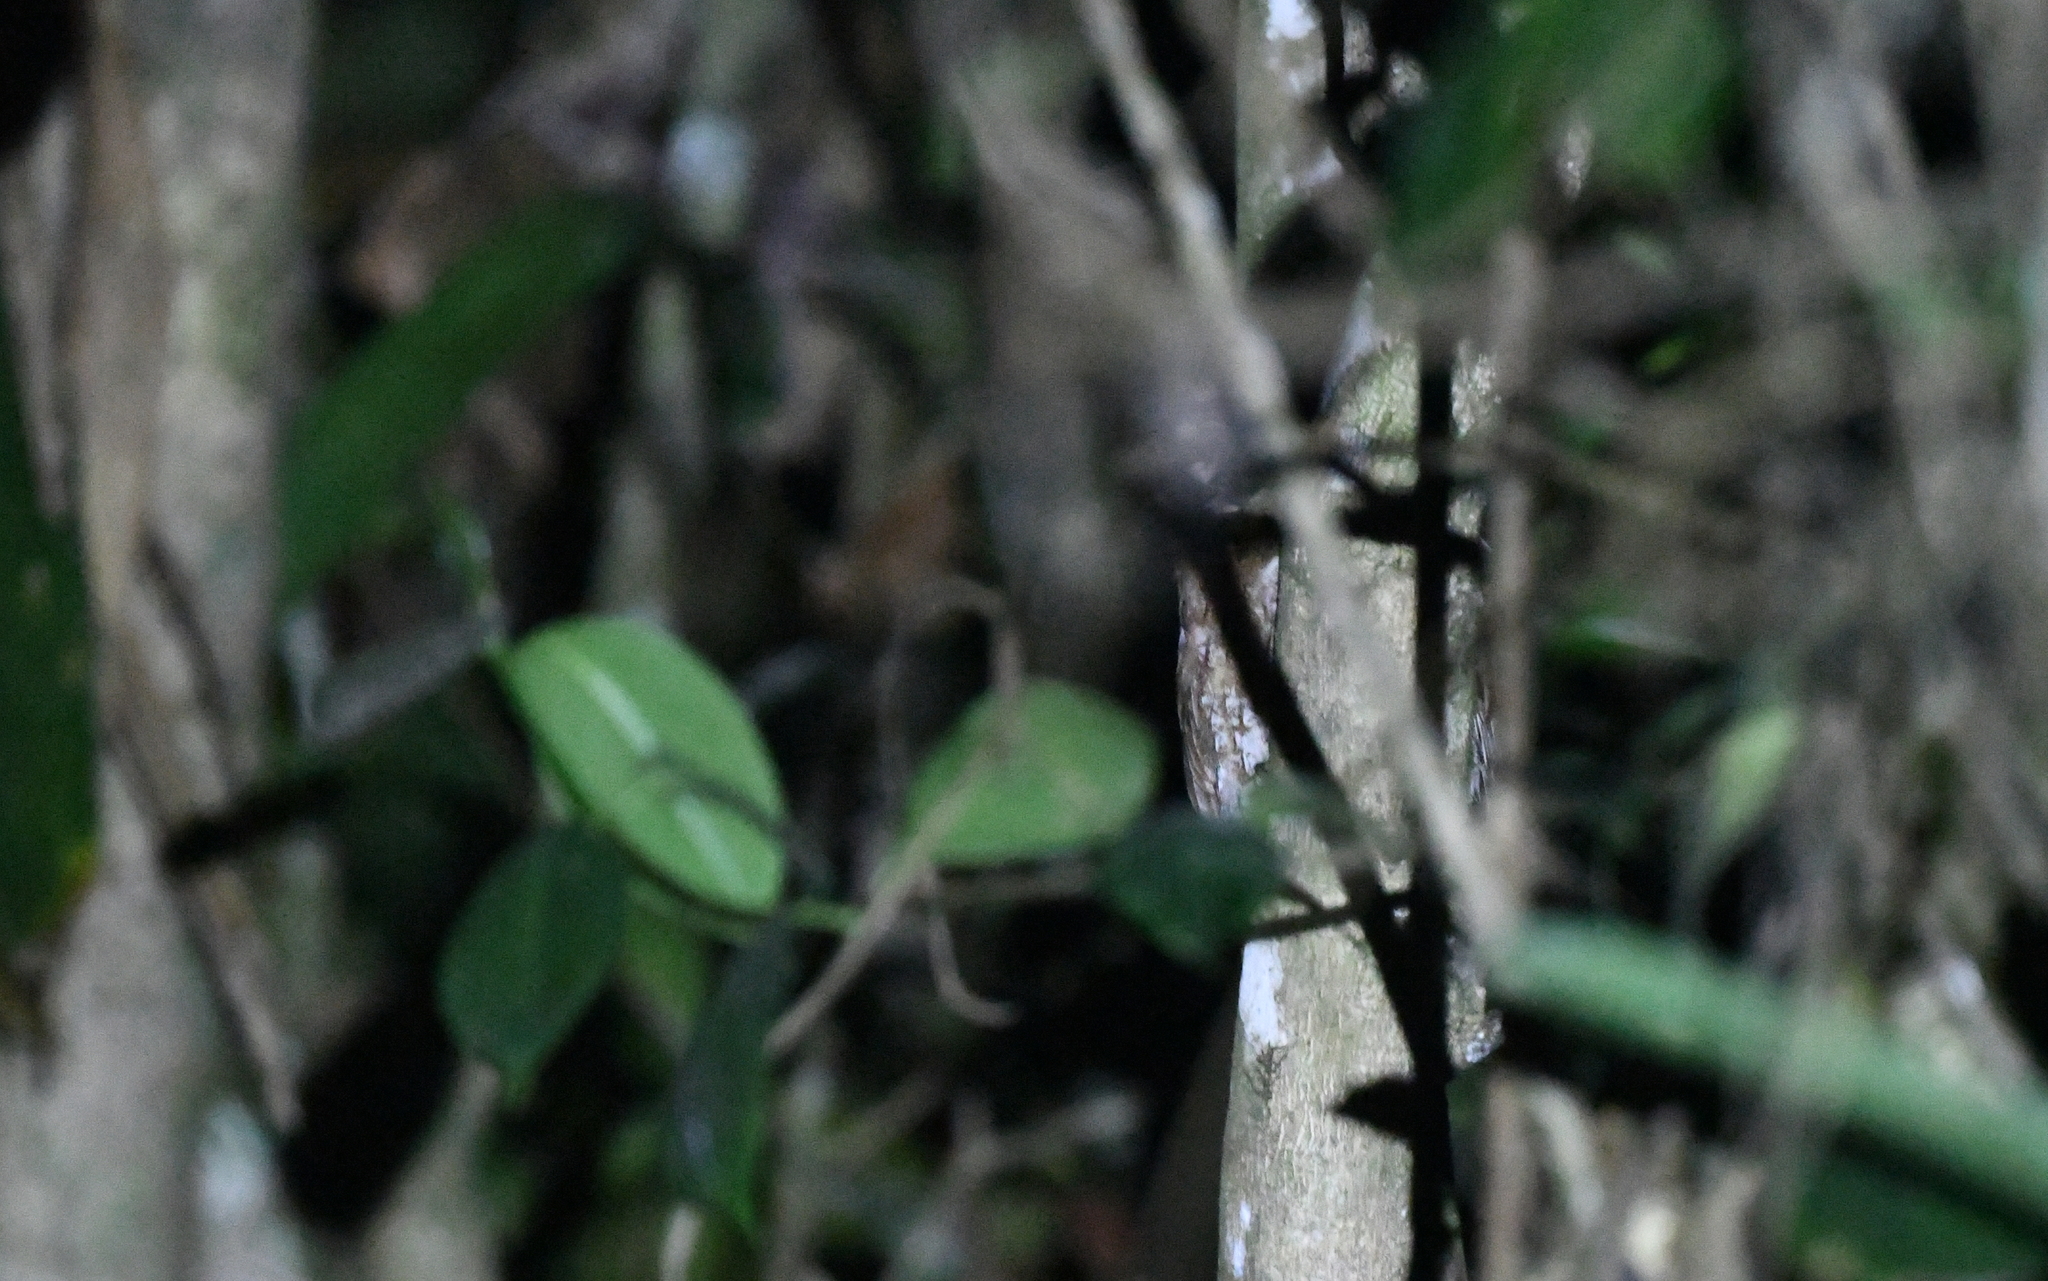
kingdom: Animalia
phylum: Chordata
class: Aves
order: Strigiformes
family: Strigidae
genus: Megascops
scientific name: Megascops gilesi
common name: Santa marta screech owl
